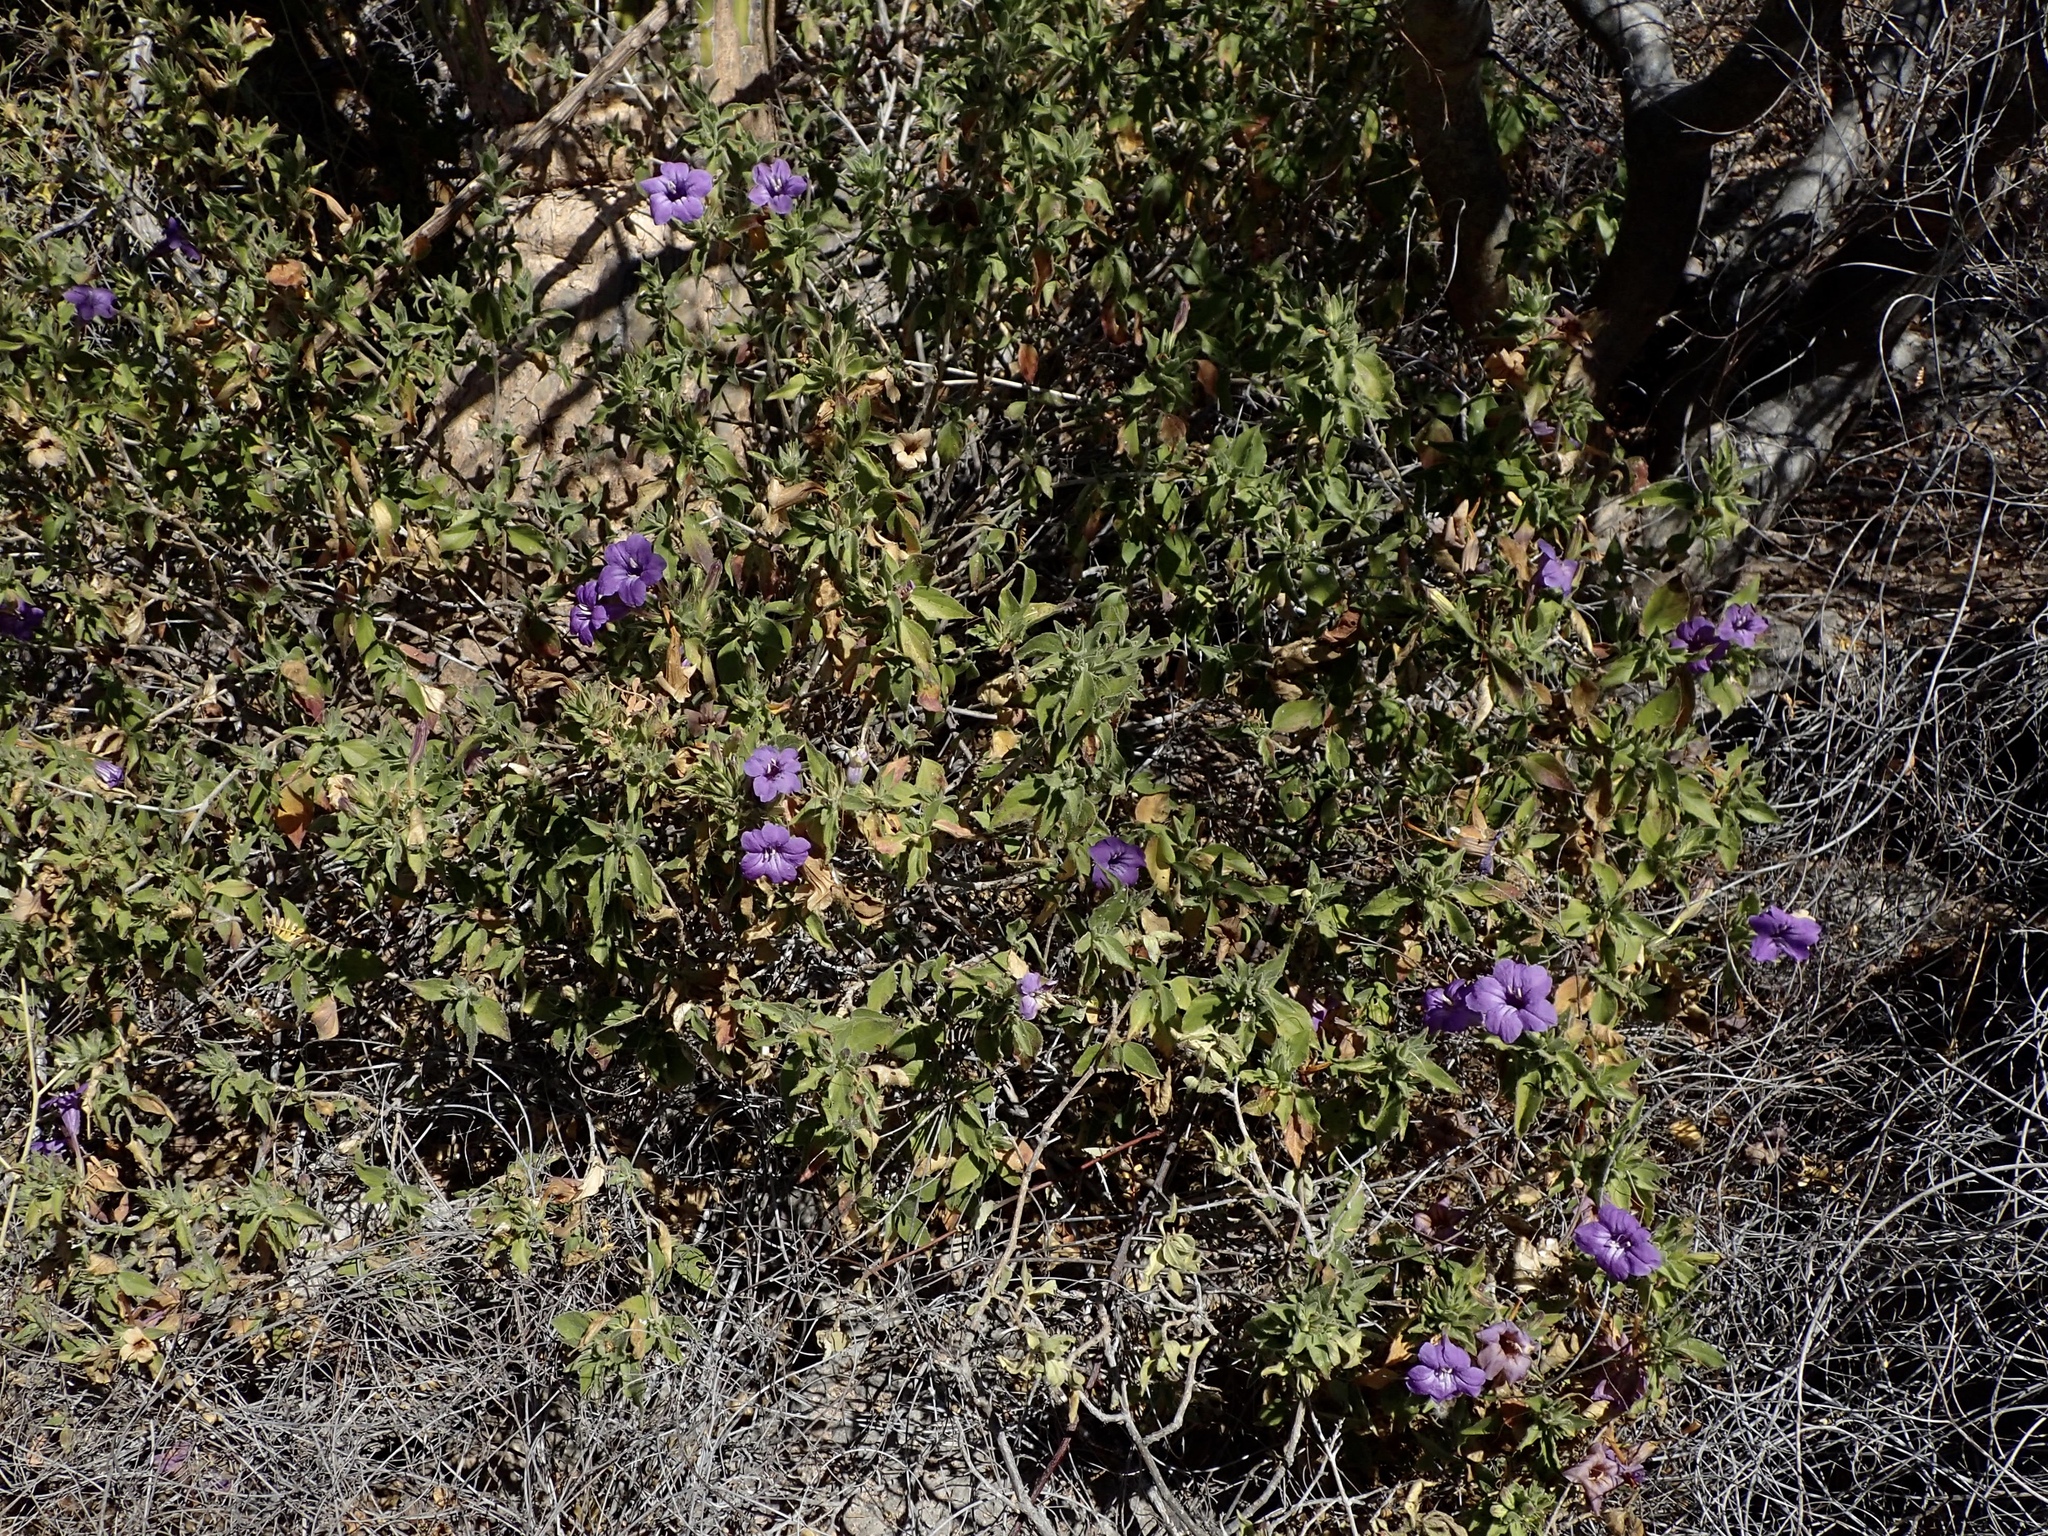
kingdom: Plantae
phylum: Tracheophyta
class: Magnoliopsida
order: Lamiales
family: Acanthaceae
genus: Ruellia
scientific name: Ruellia californica
